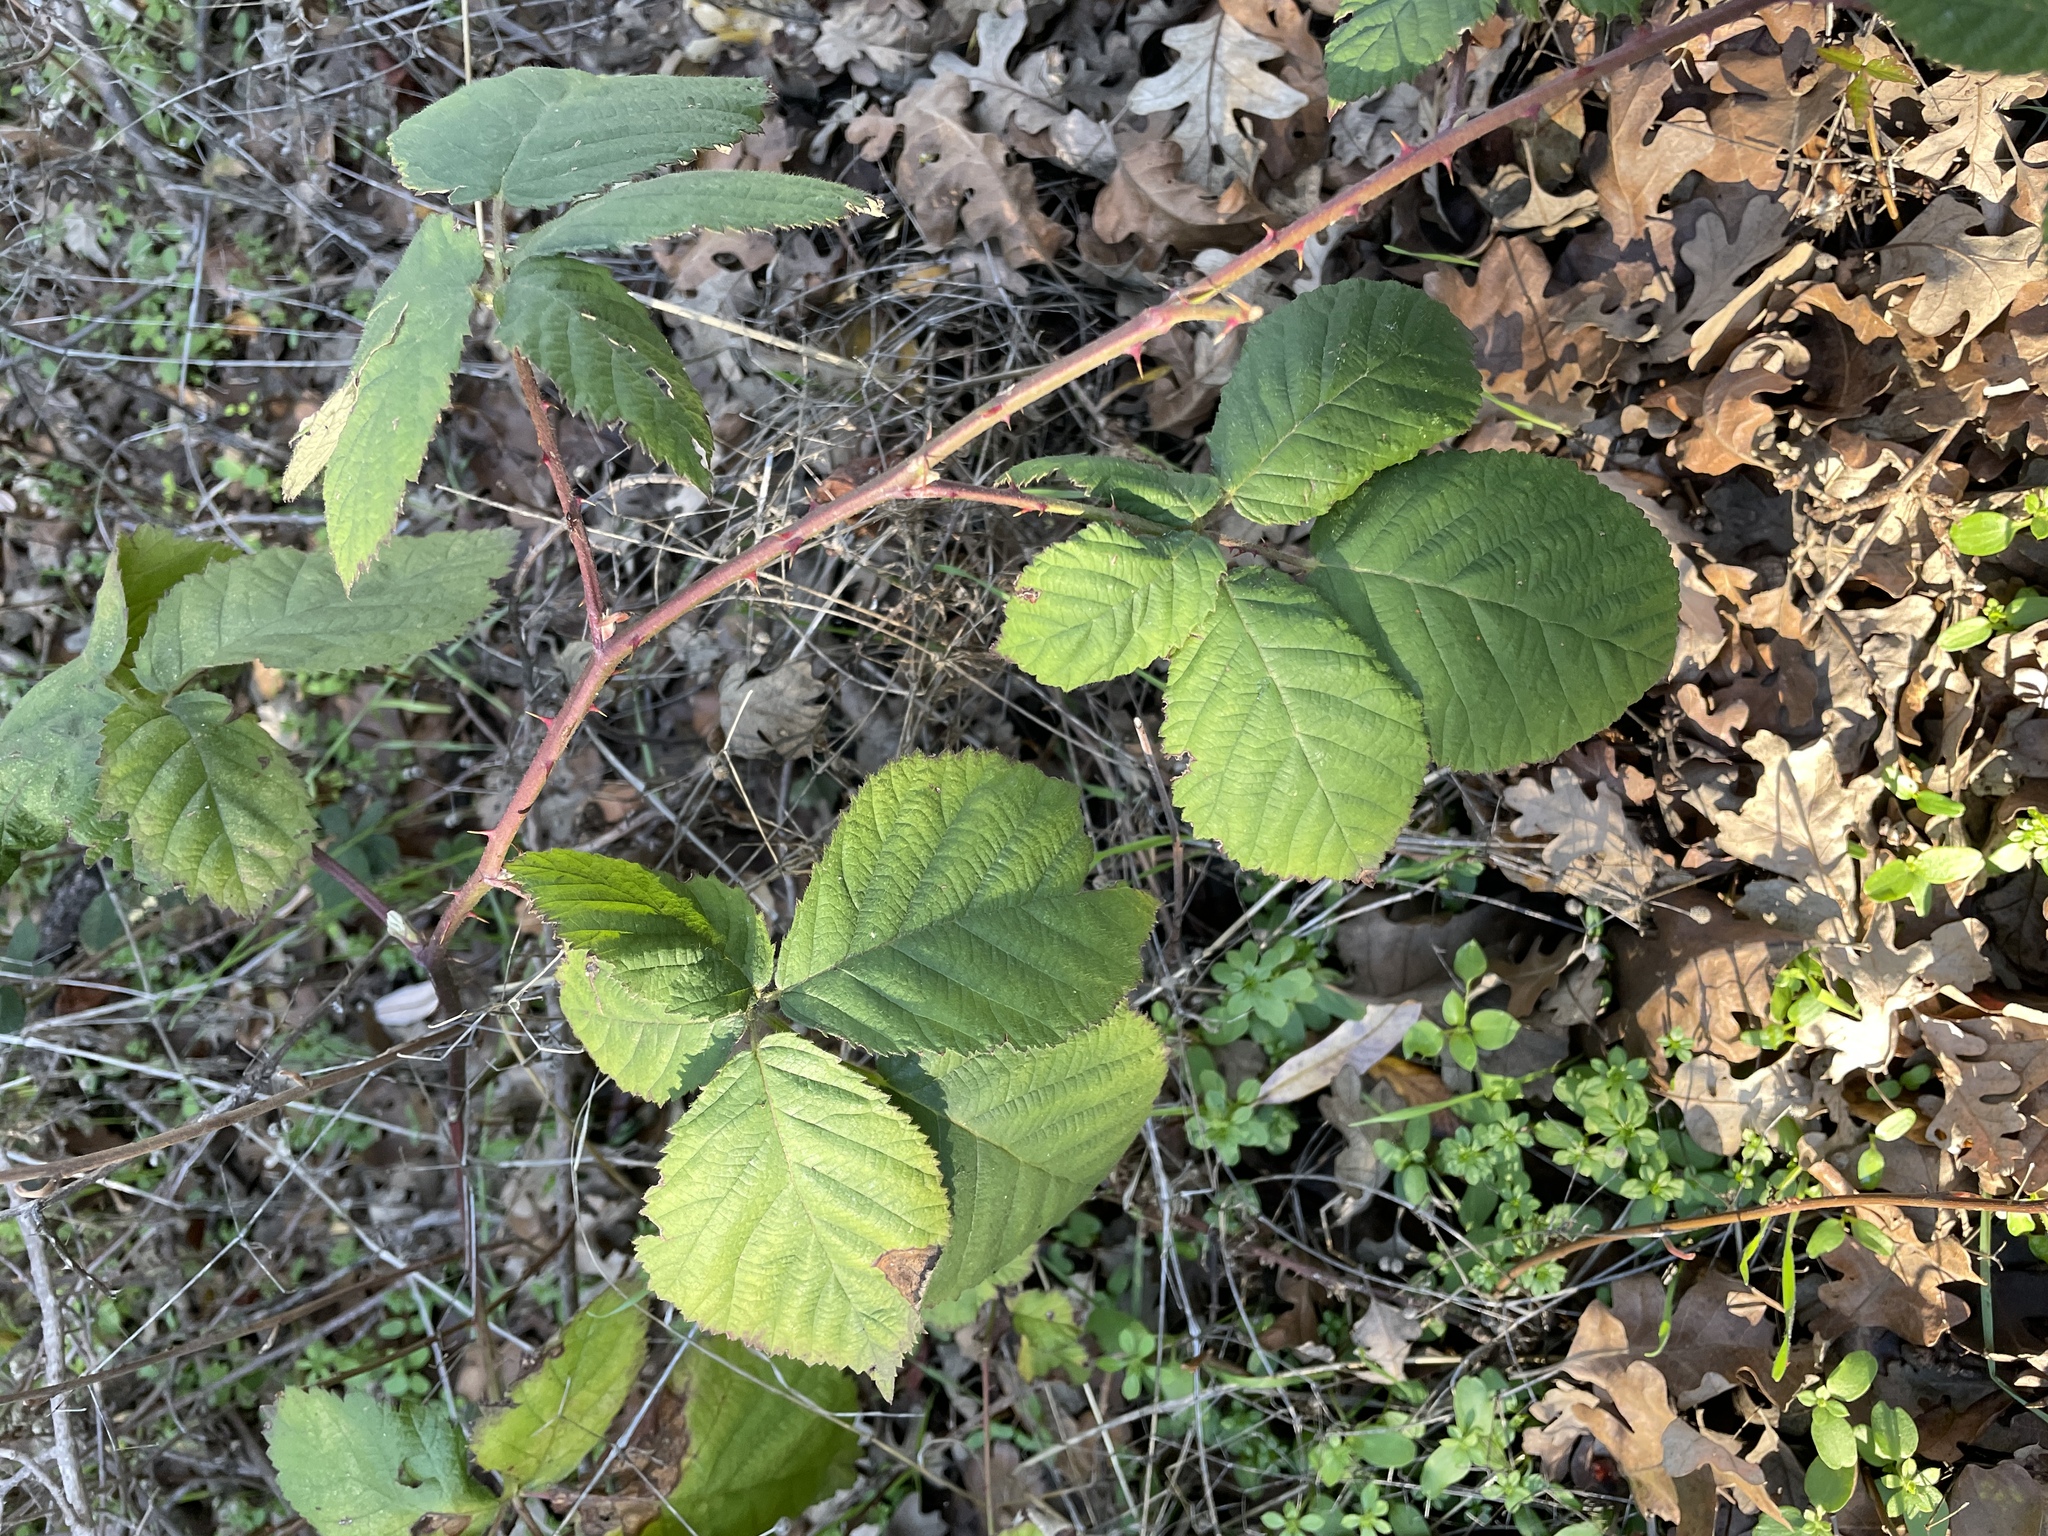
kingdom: Plantae
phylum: Tracheophyta
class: Magnoliopsida
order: Rosales
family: Rosaceae
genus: Rubus
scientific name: Rubus armeniacus
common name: Himalayan blackberry
